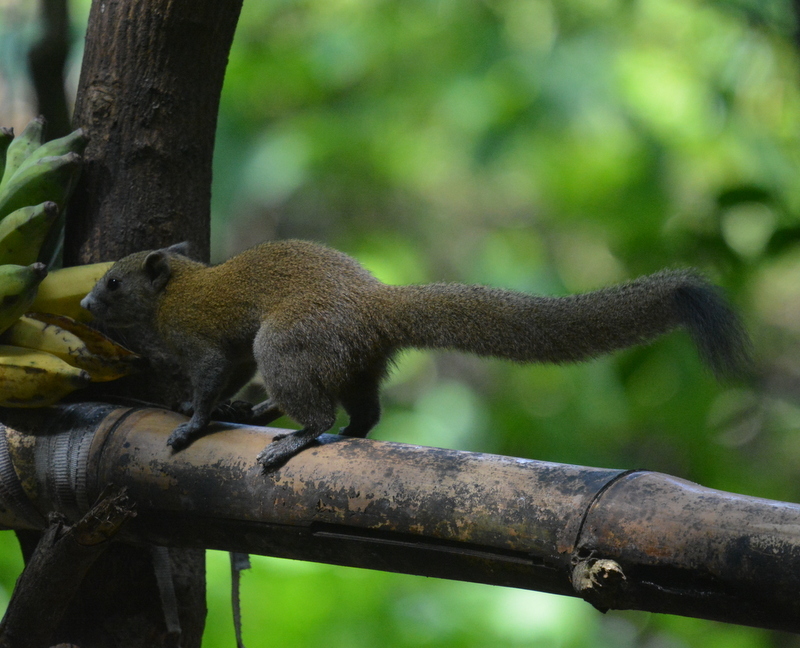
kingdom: Animalia
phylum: Chordata
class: Mammalia
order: Rodentia
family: Sciuridae
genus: Callosciurus
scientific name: Callosciurus caniceps
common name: Gray-bellied squirrel
